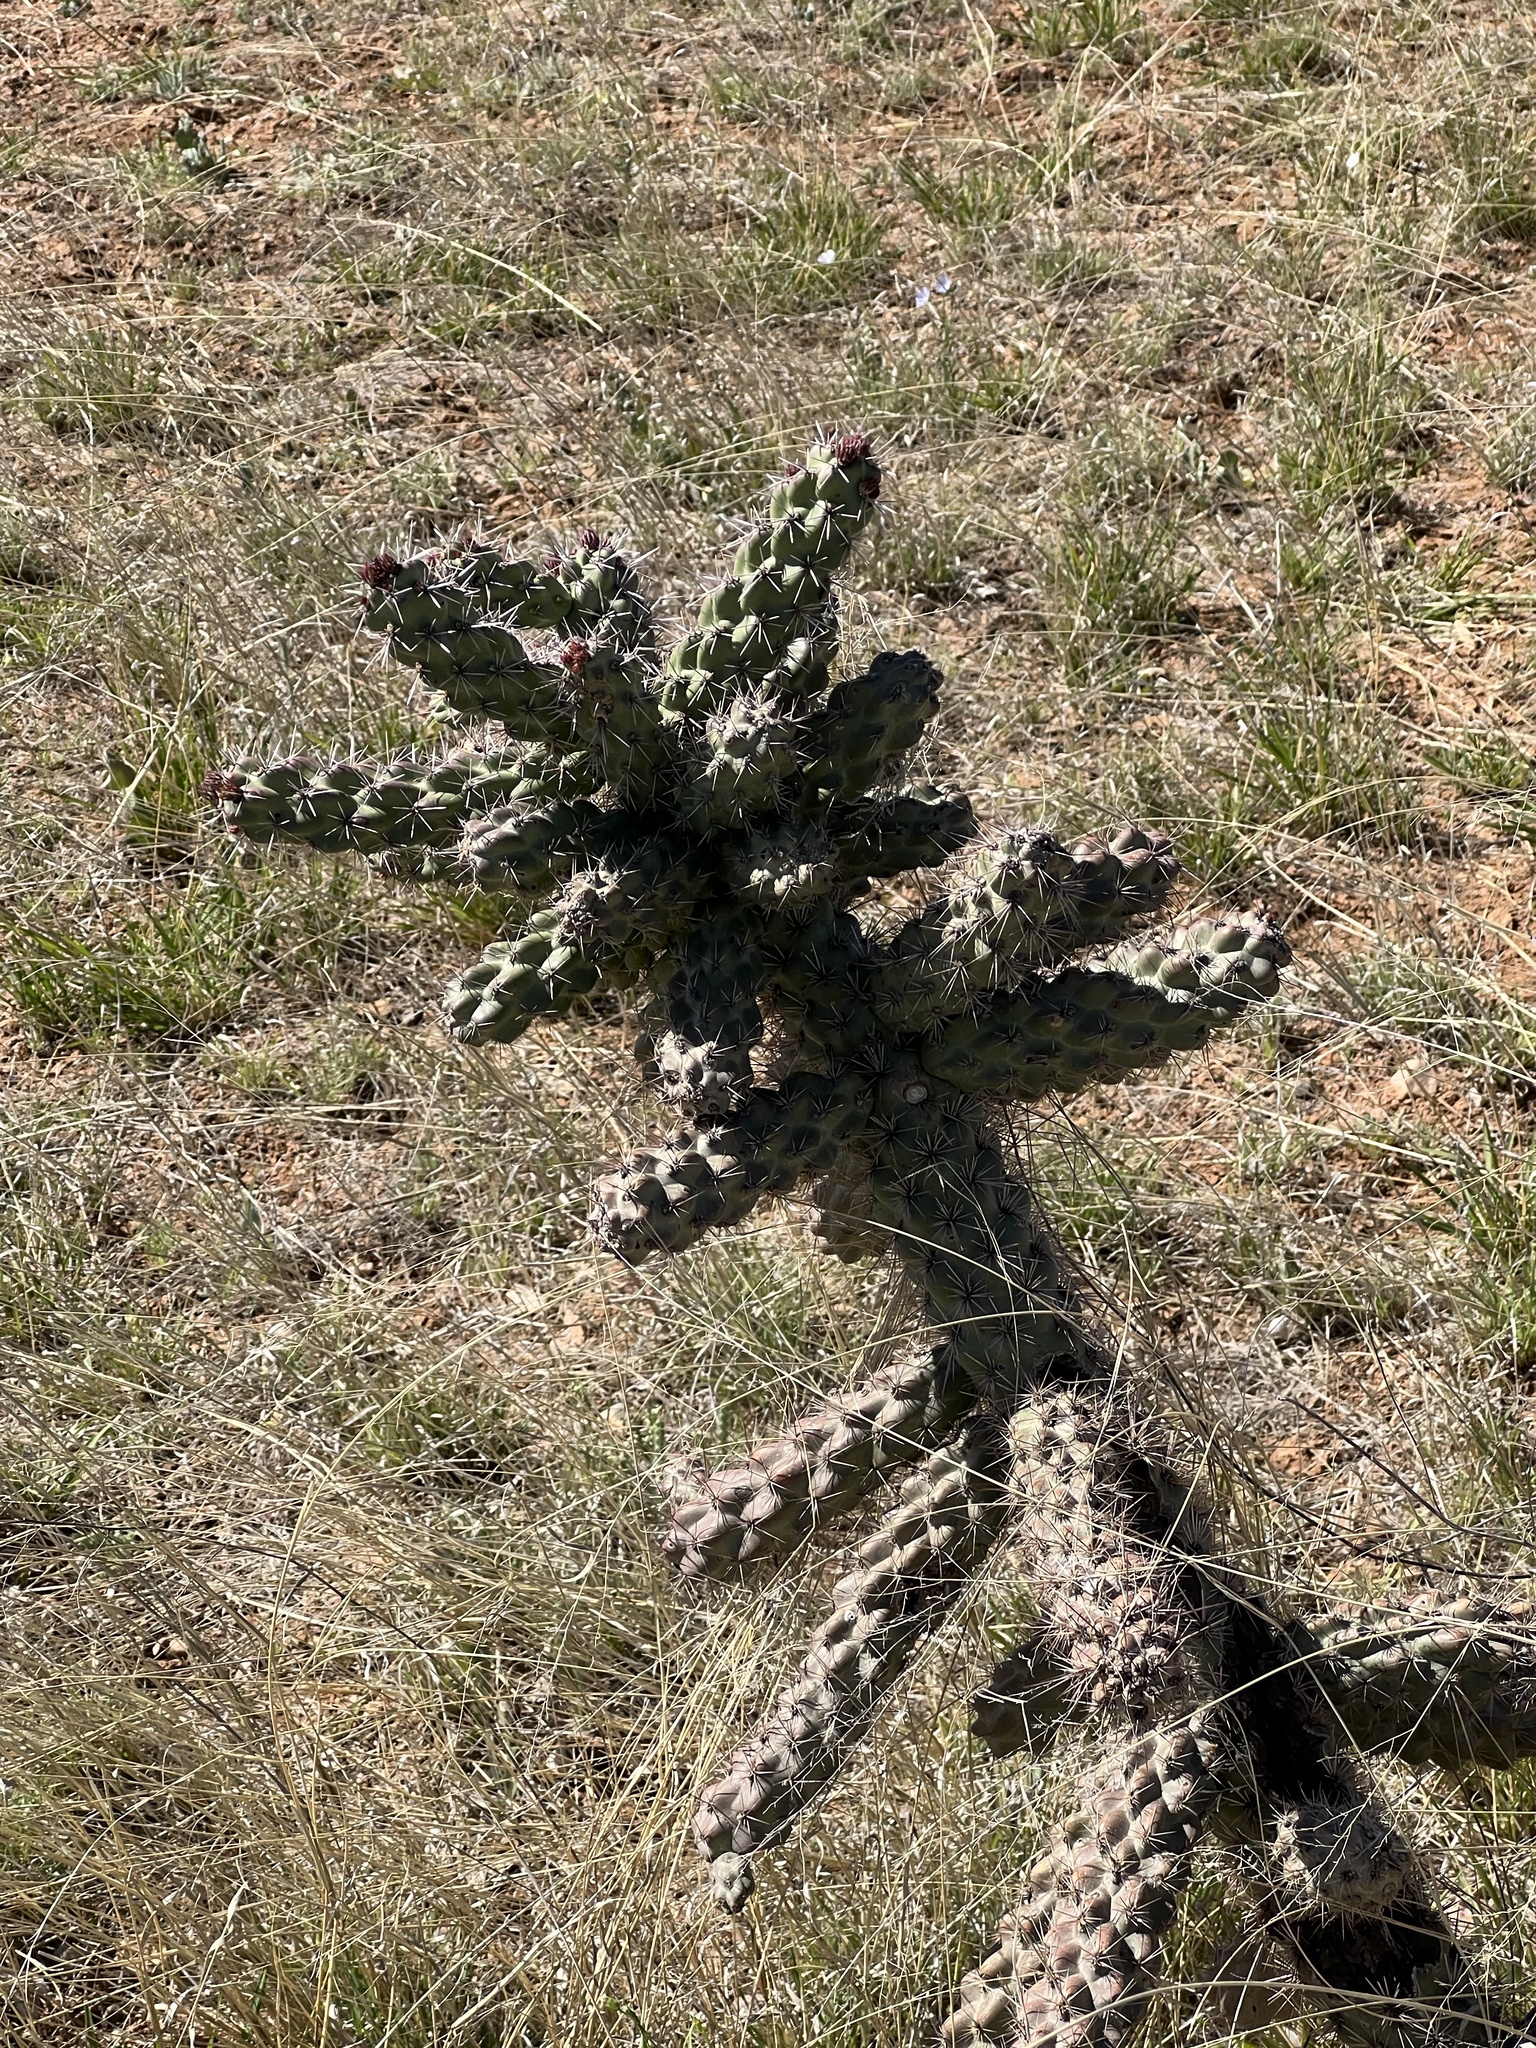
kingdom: Plantae
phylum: Tracheophyta
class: Magnoliopsida
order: Caryophyllales
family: Cactaceae
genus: Cylindropuntia
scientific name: Cylindropuntia imbricata
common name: Candelabrum cactus
